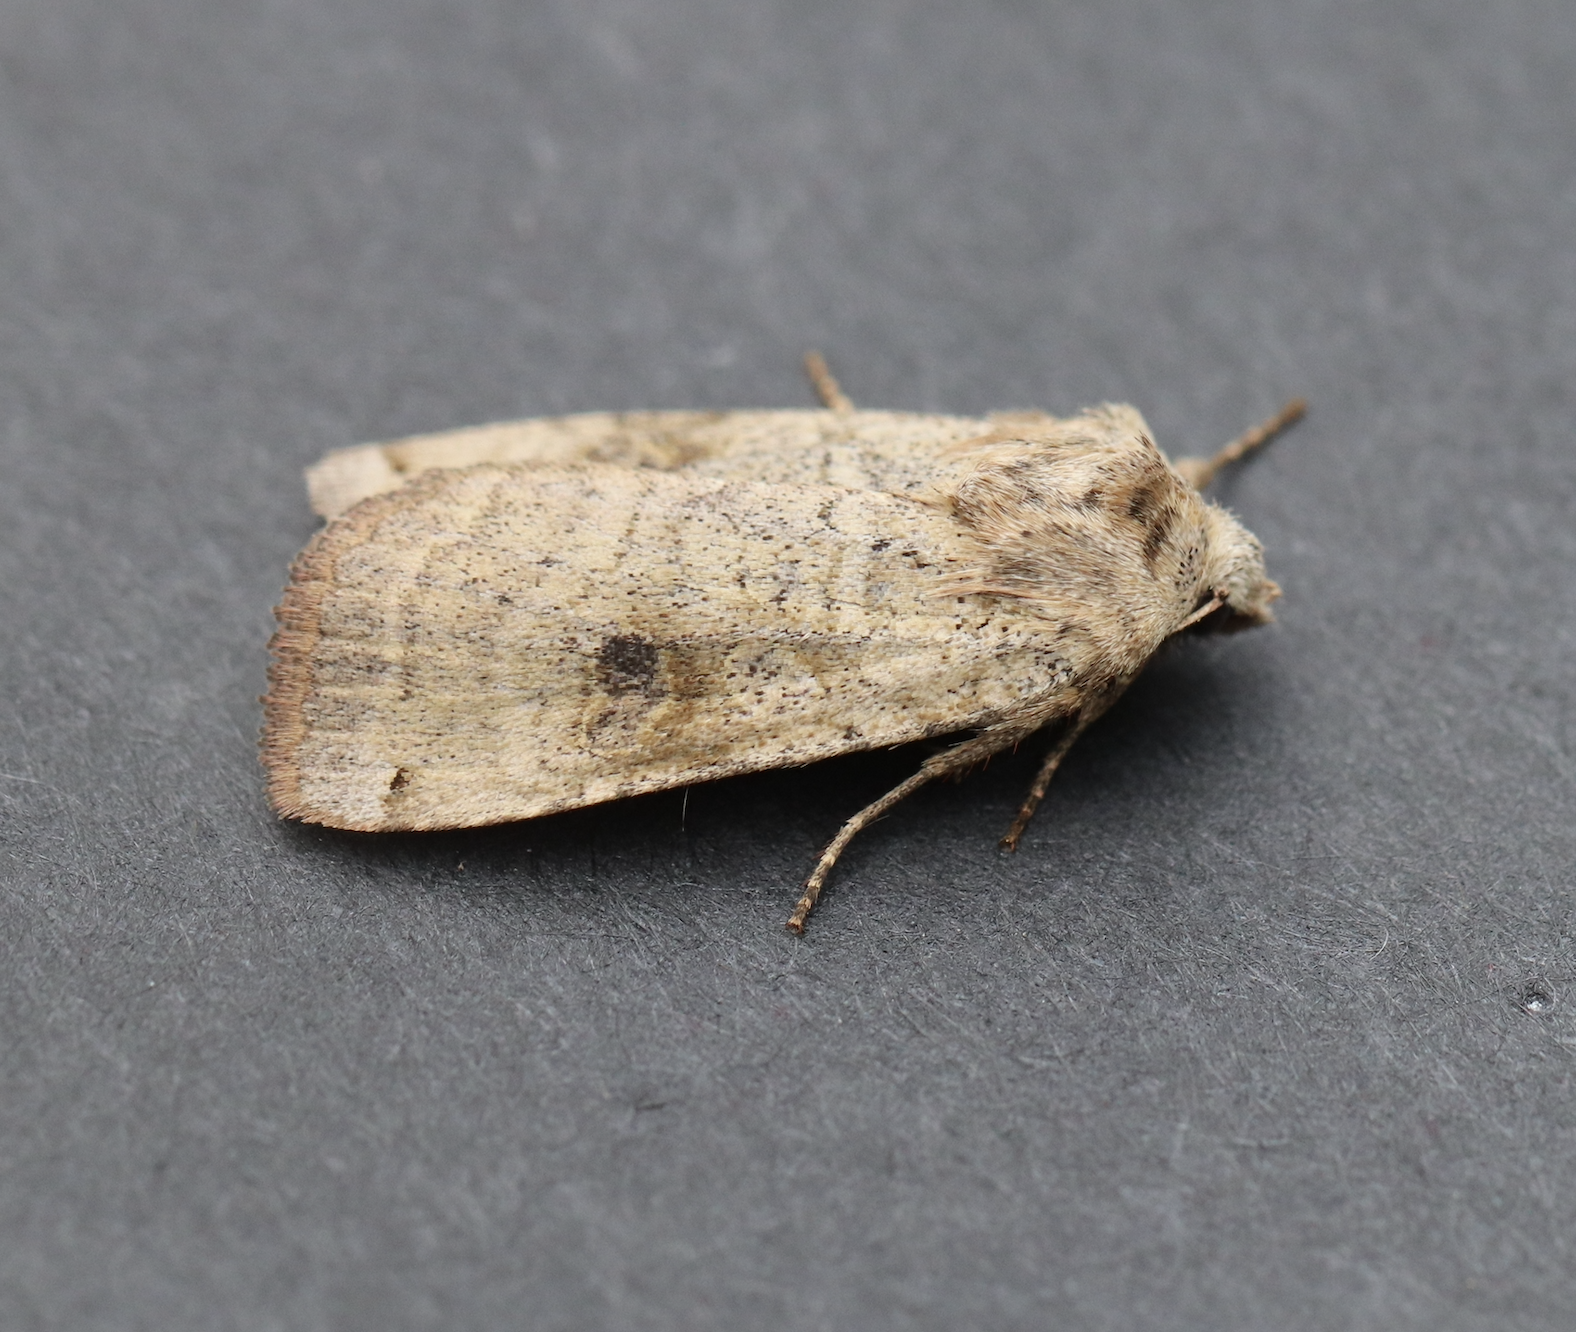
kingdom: Animalia
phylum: Arthropoda
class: Insecta
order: Lepidoptera
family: Noctuidae
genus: Xestia
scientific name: Xestia smithii
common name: Smith's dart
